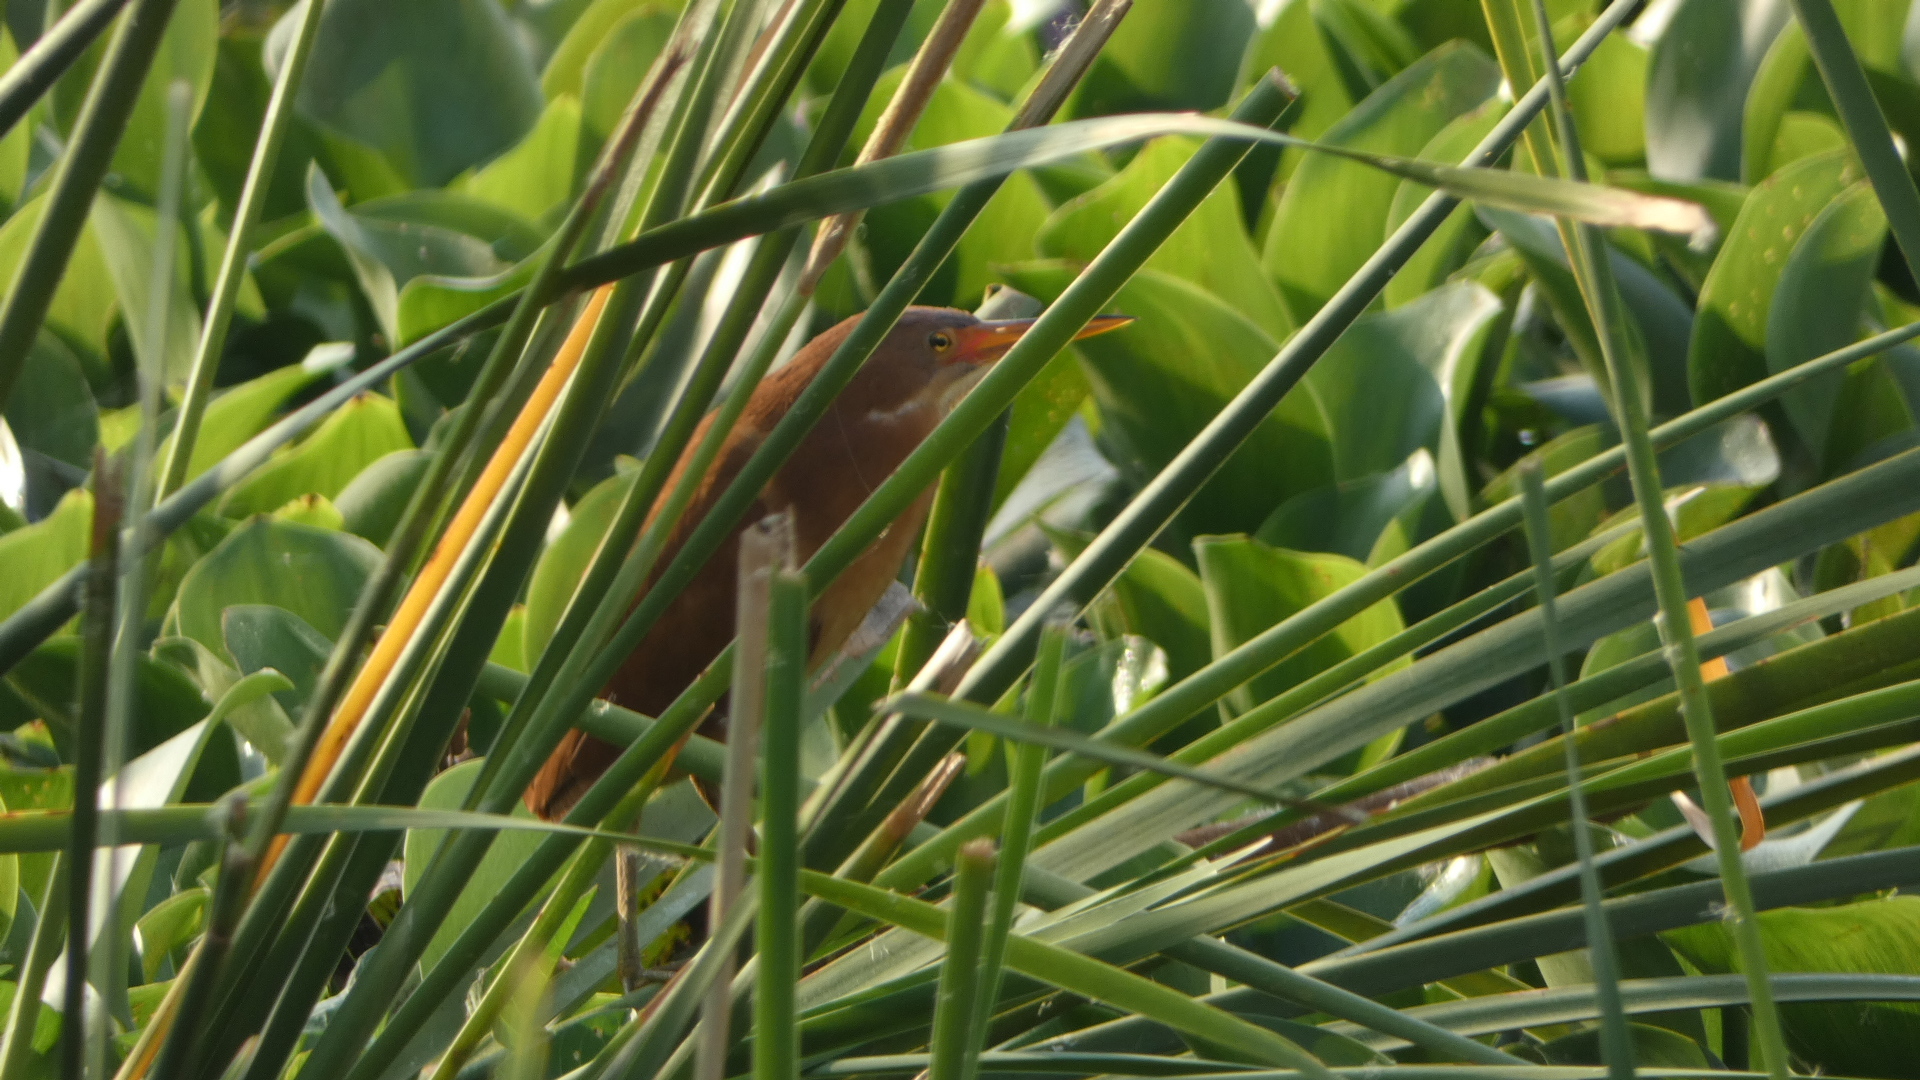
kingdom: Animalia
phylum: Chordata
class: Aves
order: Pelecaniformes
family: Ardeidae
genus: Ixobrychus
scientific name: Ixobrychus cinnamomeus
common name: Cinnamon bittern
